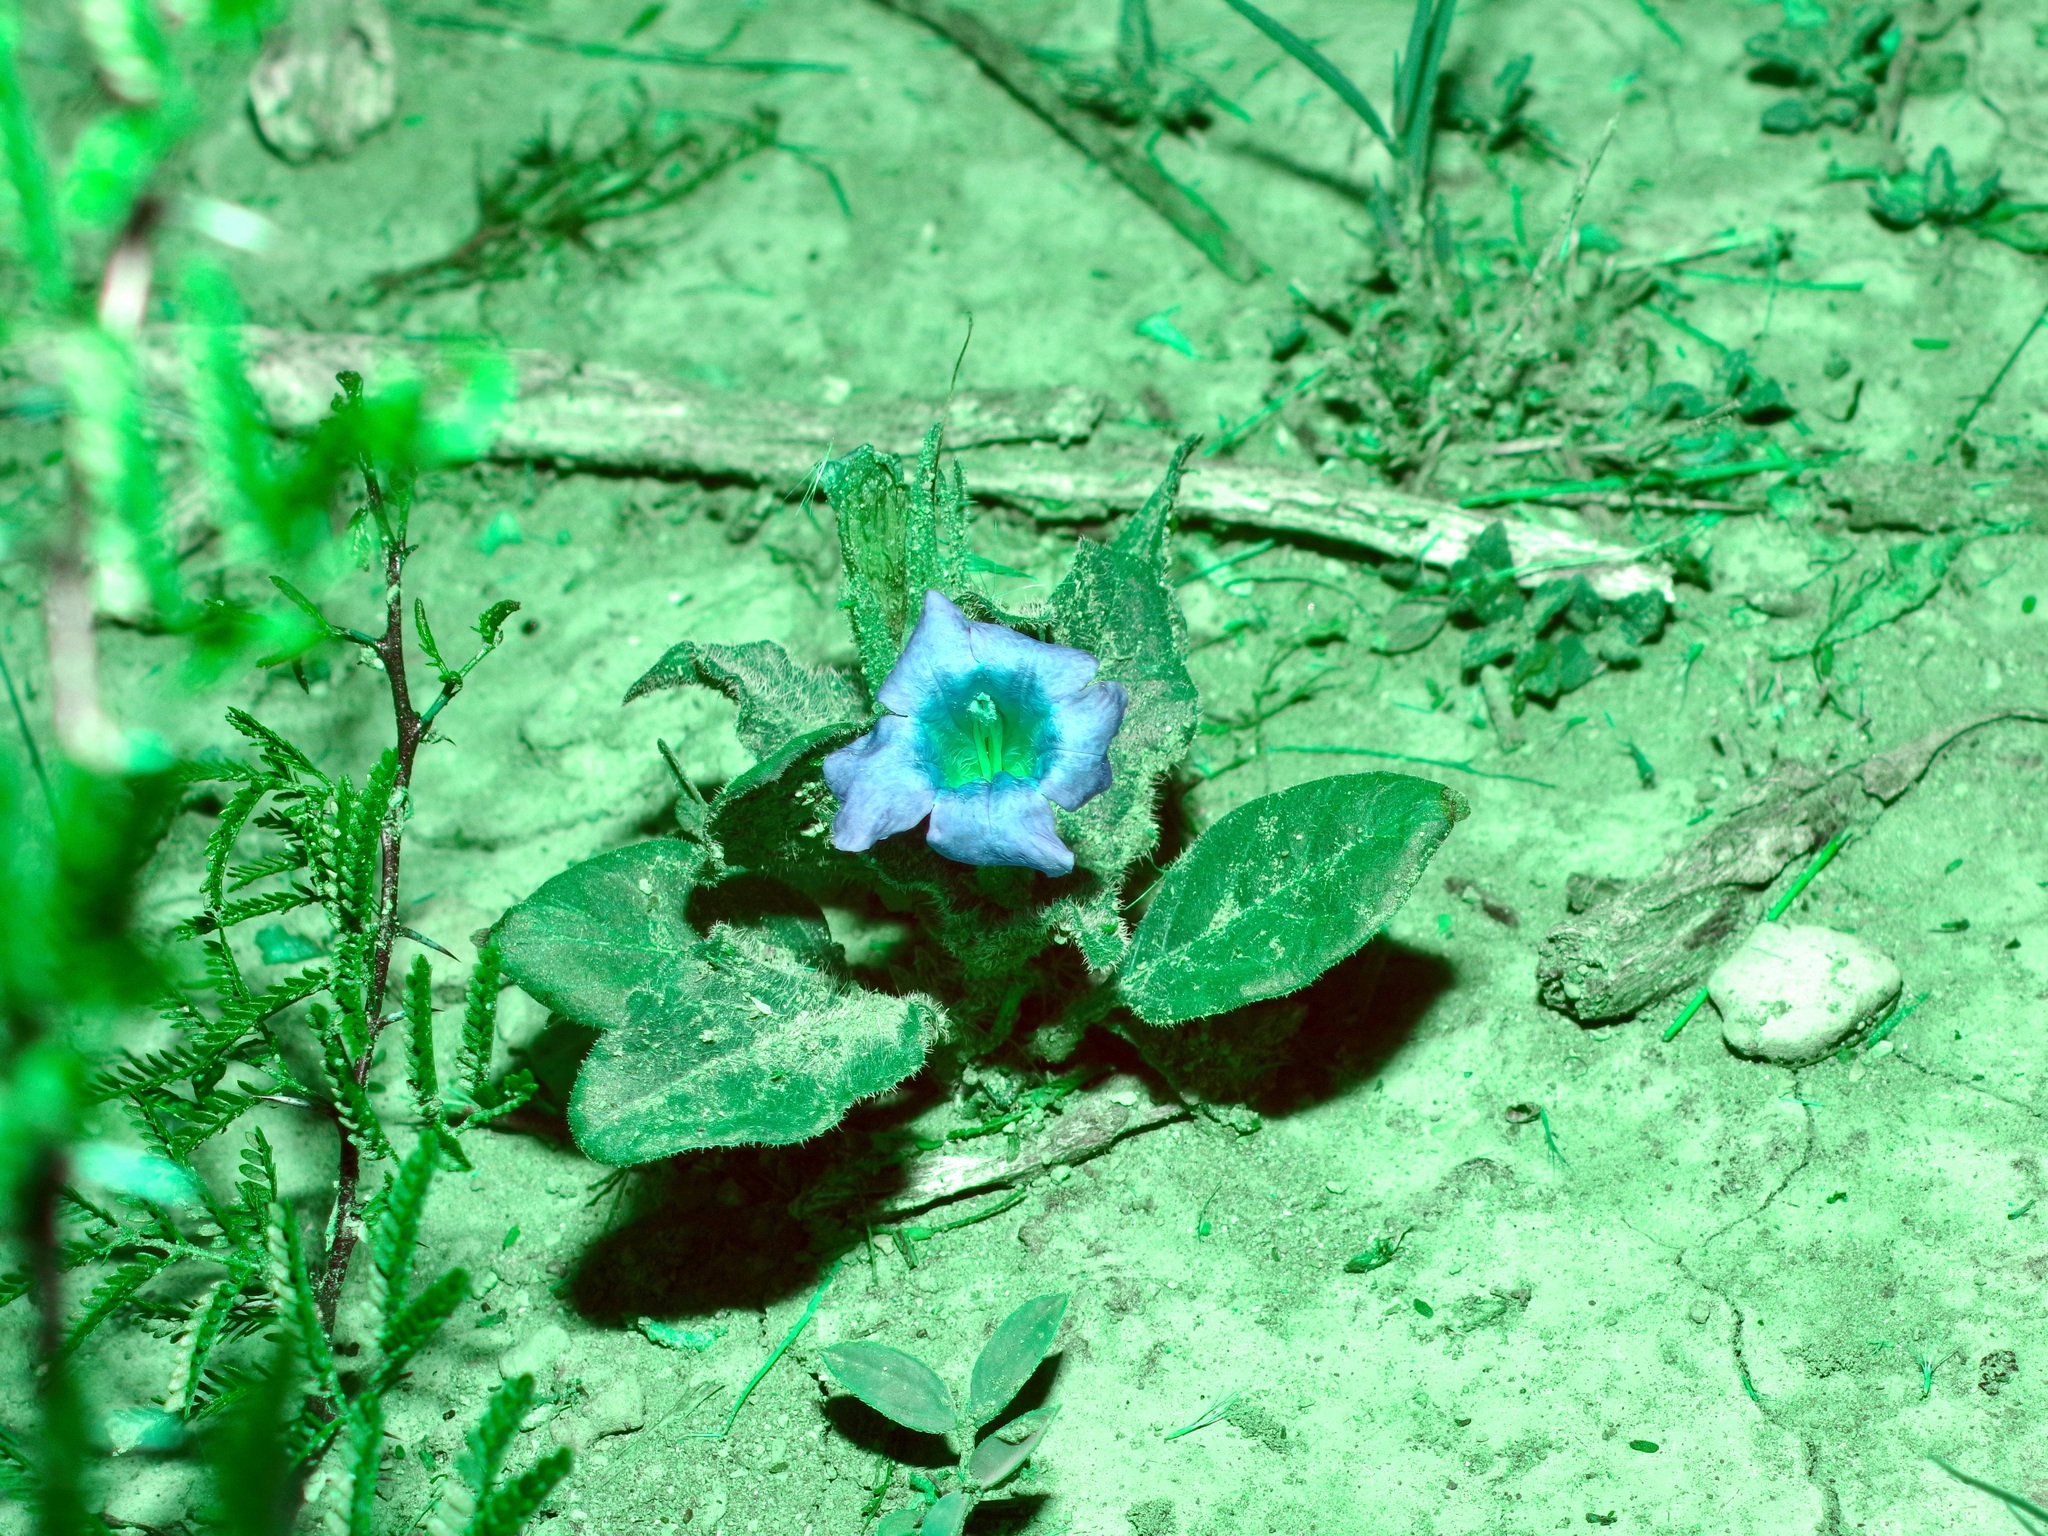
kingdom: Plantae
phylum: Tracheophyta
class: Magnoliopsida
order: Lamiales
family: Acanthaceae
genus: Ruellia
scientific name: Ruellia corzoi
